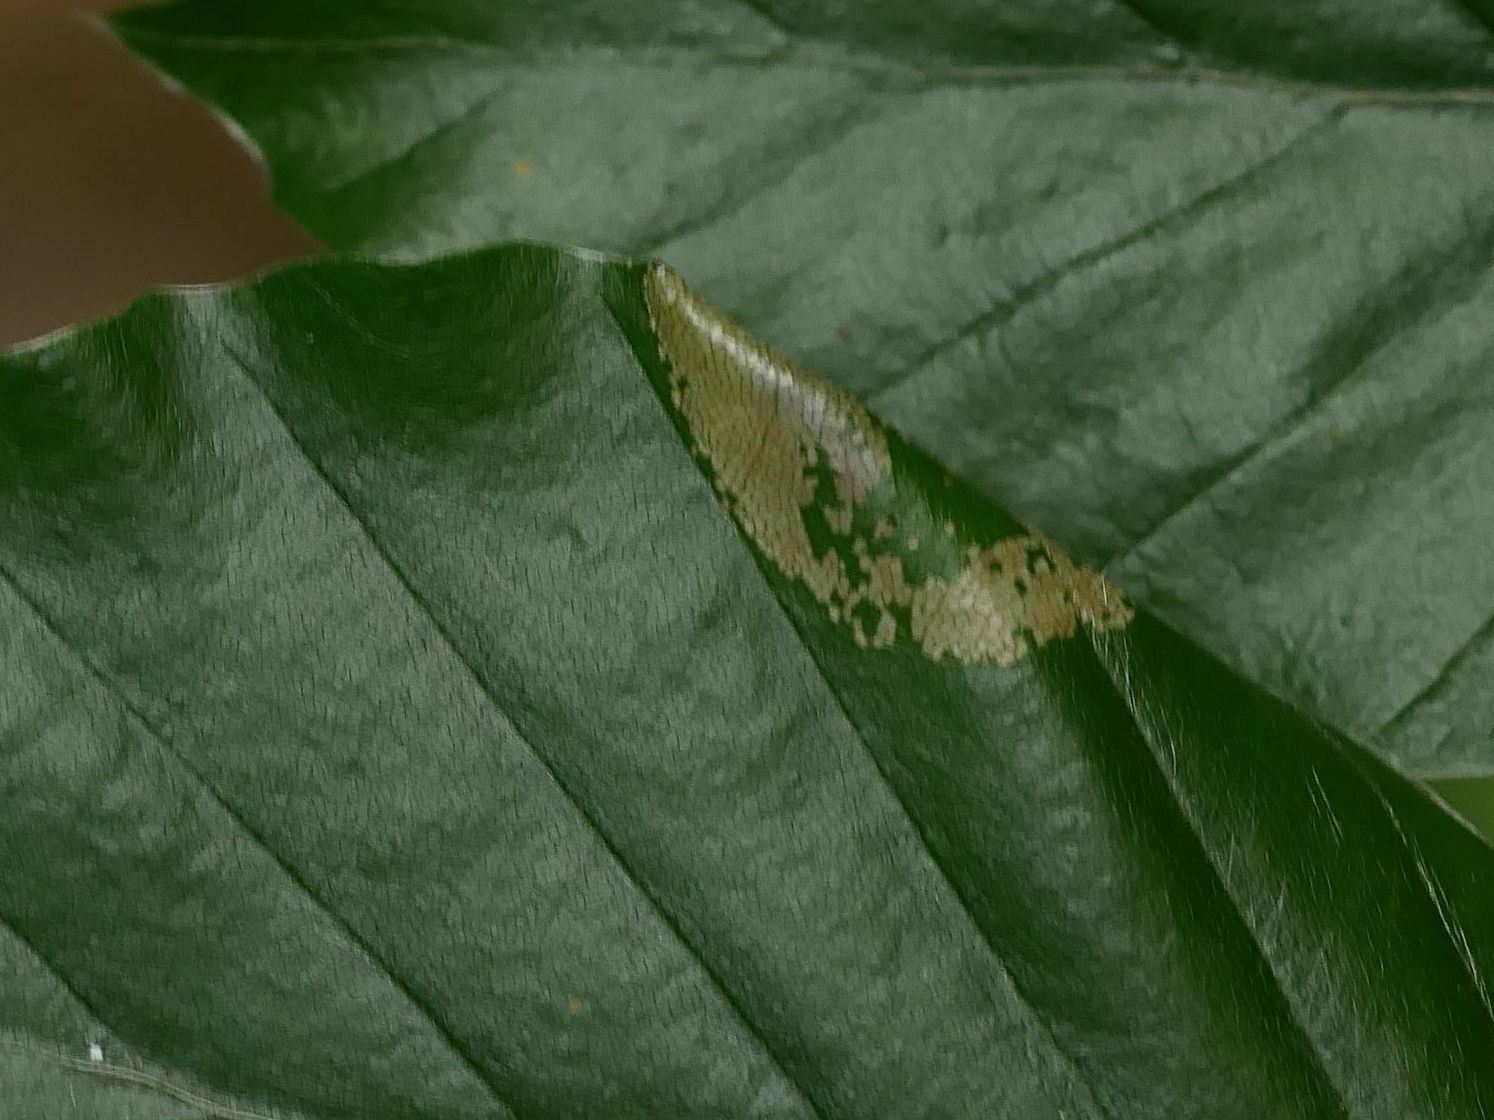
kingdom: Plantae
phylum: Tracheophyta
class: Magnoliopsida
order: Fagales
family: Fagaceae
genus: Fagus
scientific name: Fagus sylvatica
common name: Beech
